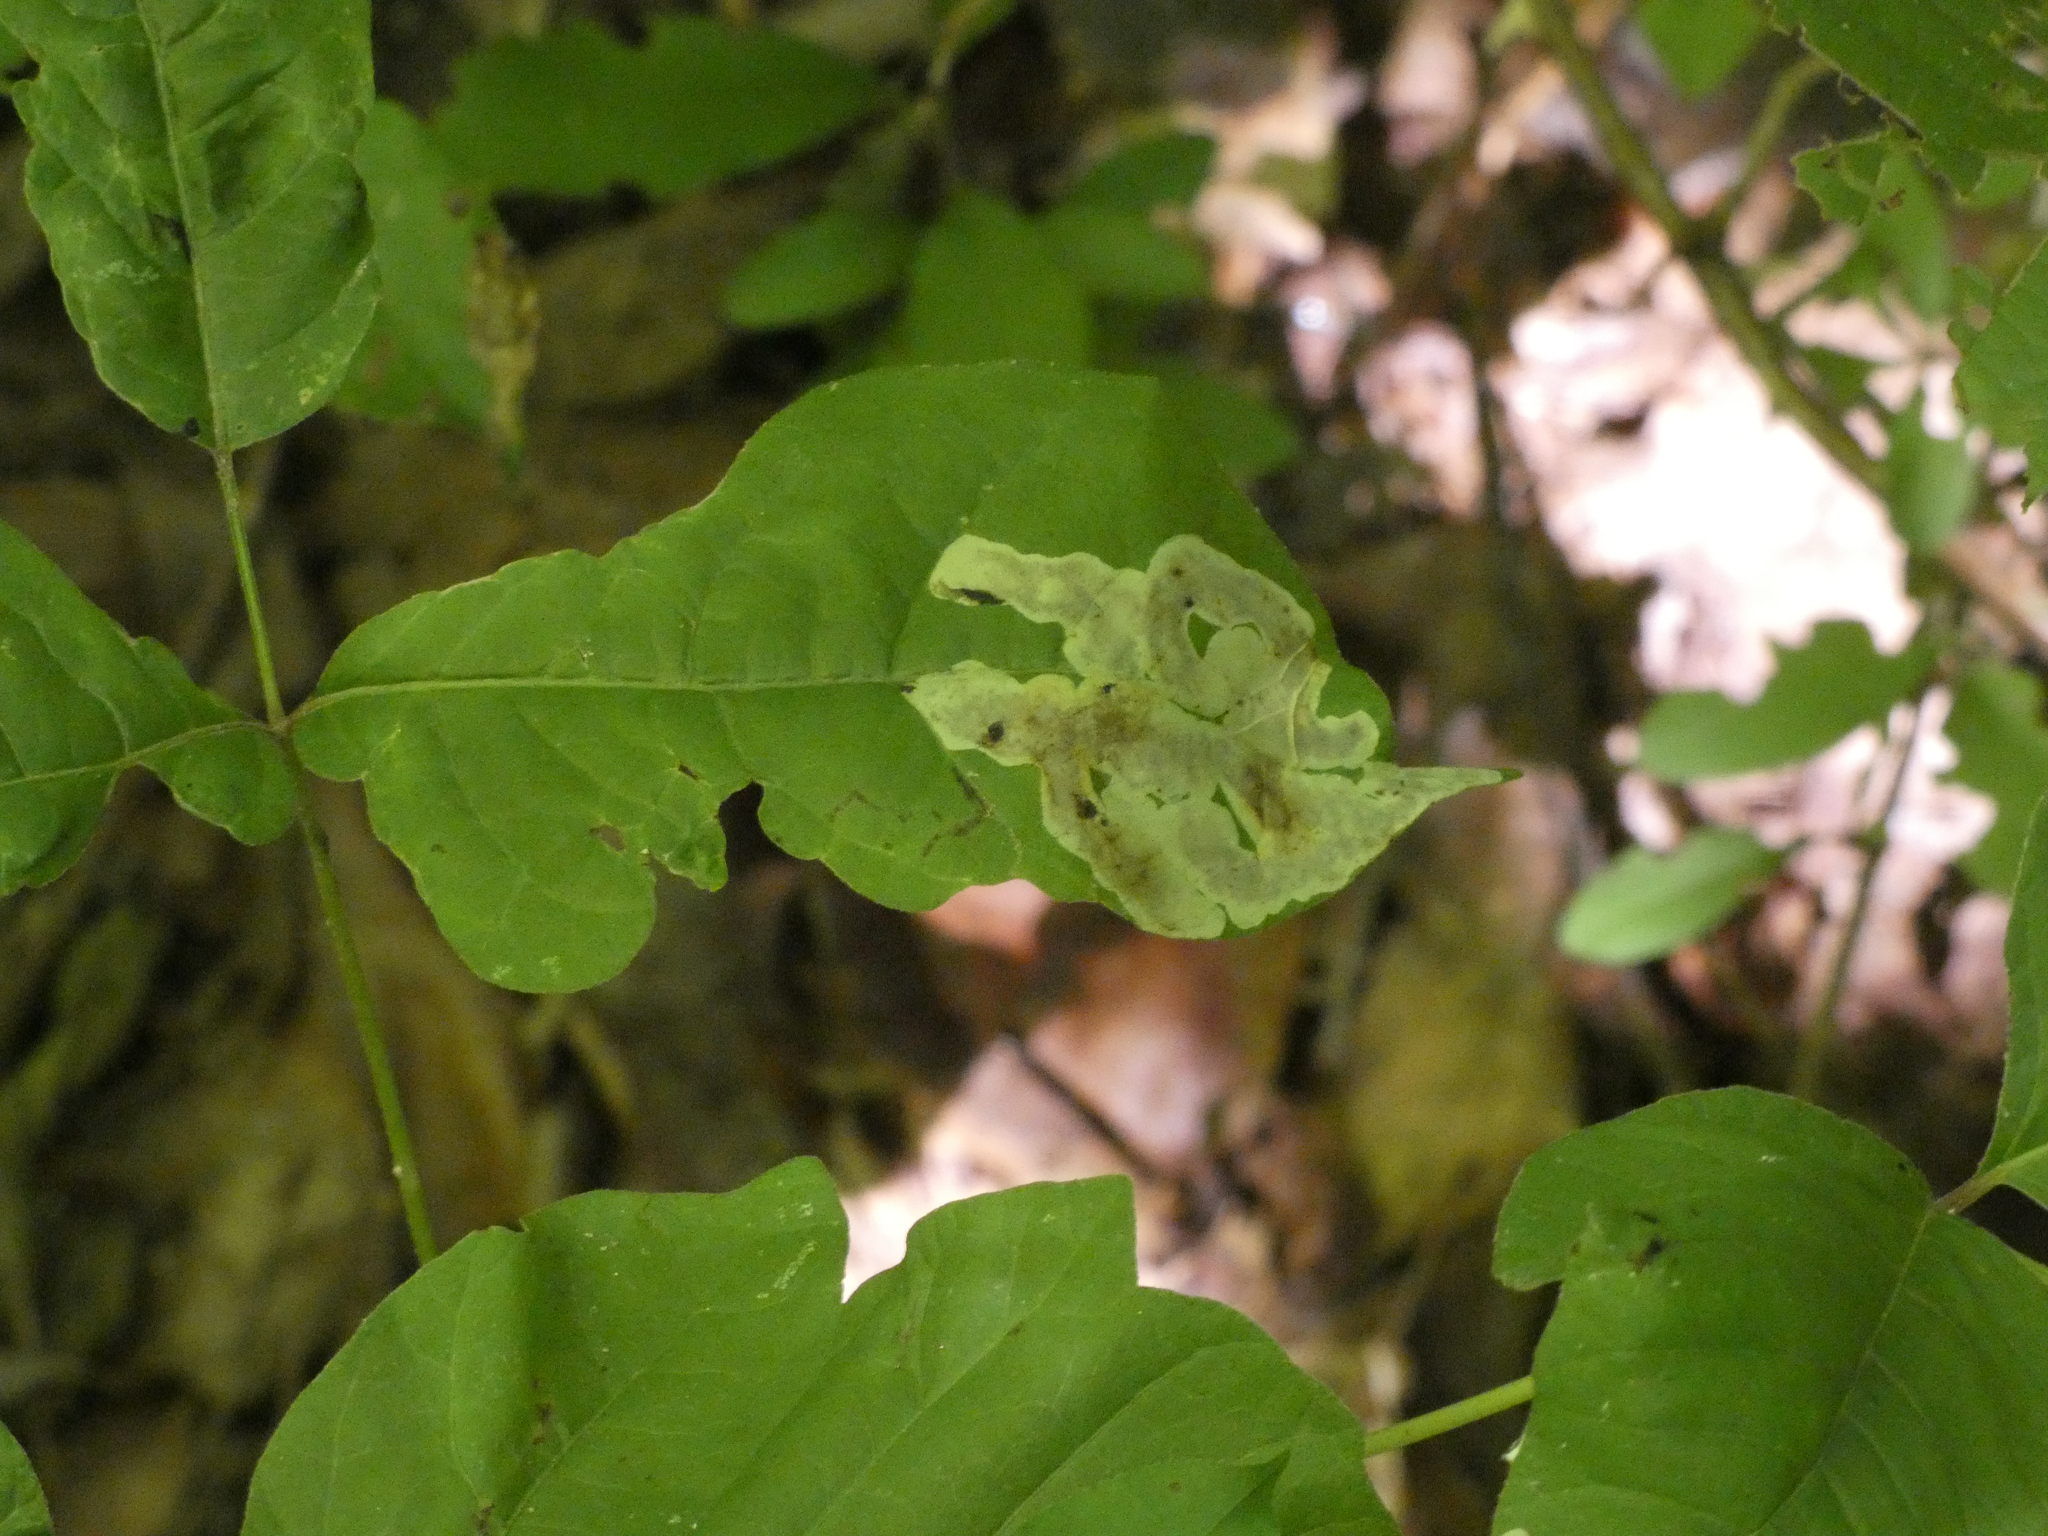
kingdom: Animalia
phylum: Arthropoda
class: Insecta
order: Lepidoptera
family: Gracillariidae
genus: Cameraria
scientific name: Cameraria guttifinitella
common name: Poison ivy leaf-miner moth
